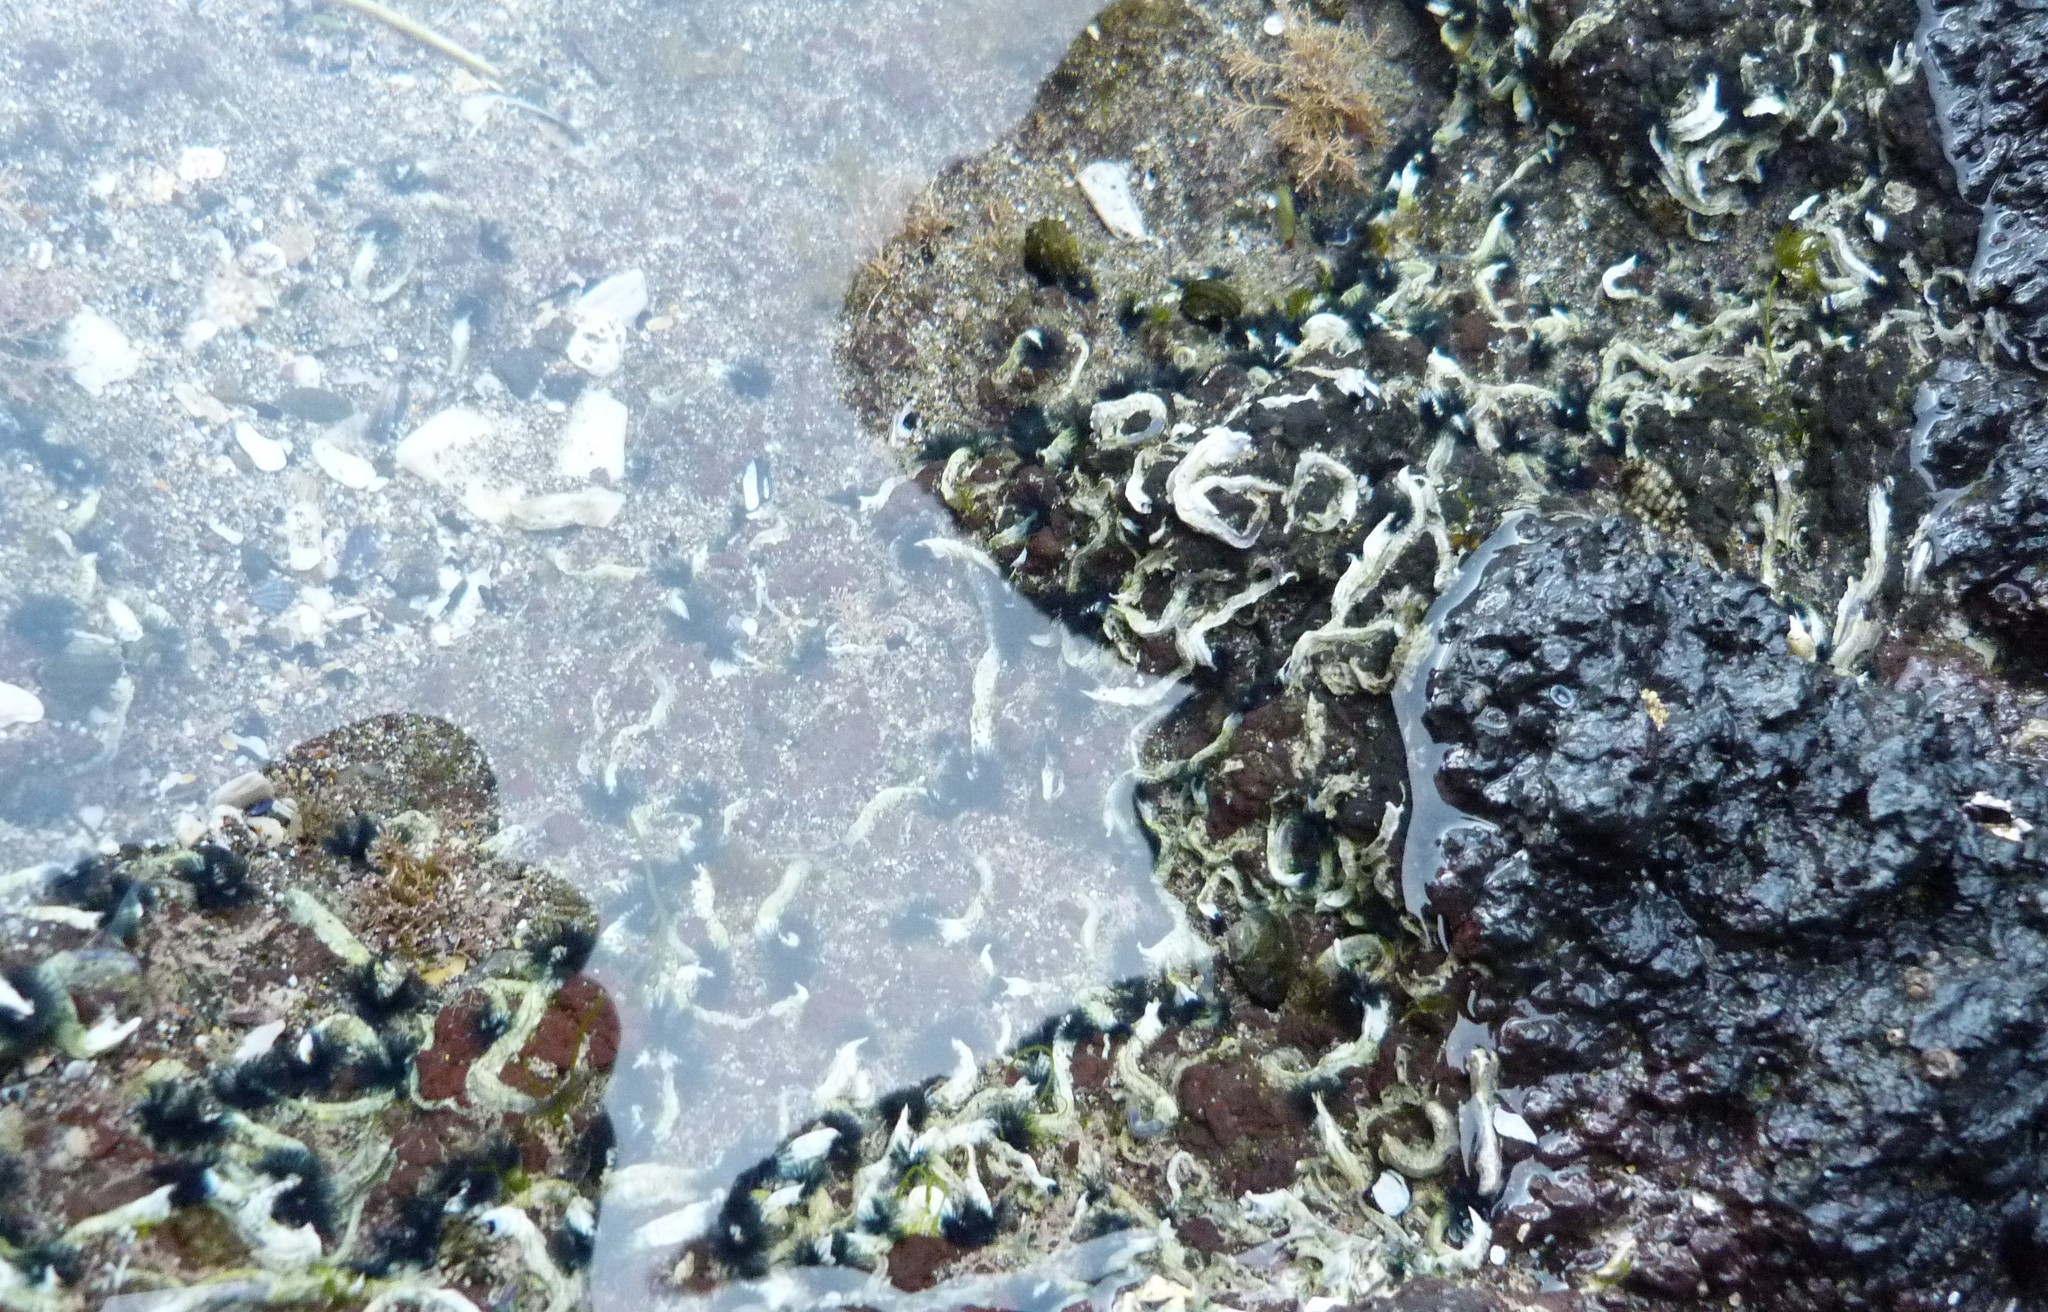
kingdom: Animalia
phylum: Annelida
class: Polychaeta
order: Sabellida
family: Serpulidae
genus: Spirobranchus
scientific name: Spirobranchus cariniferus
